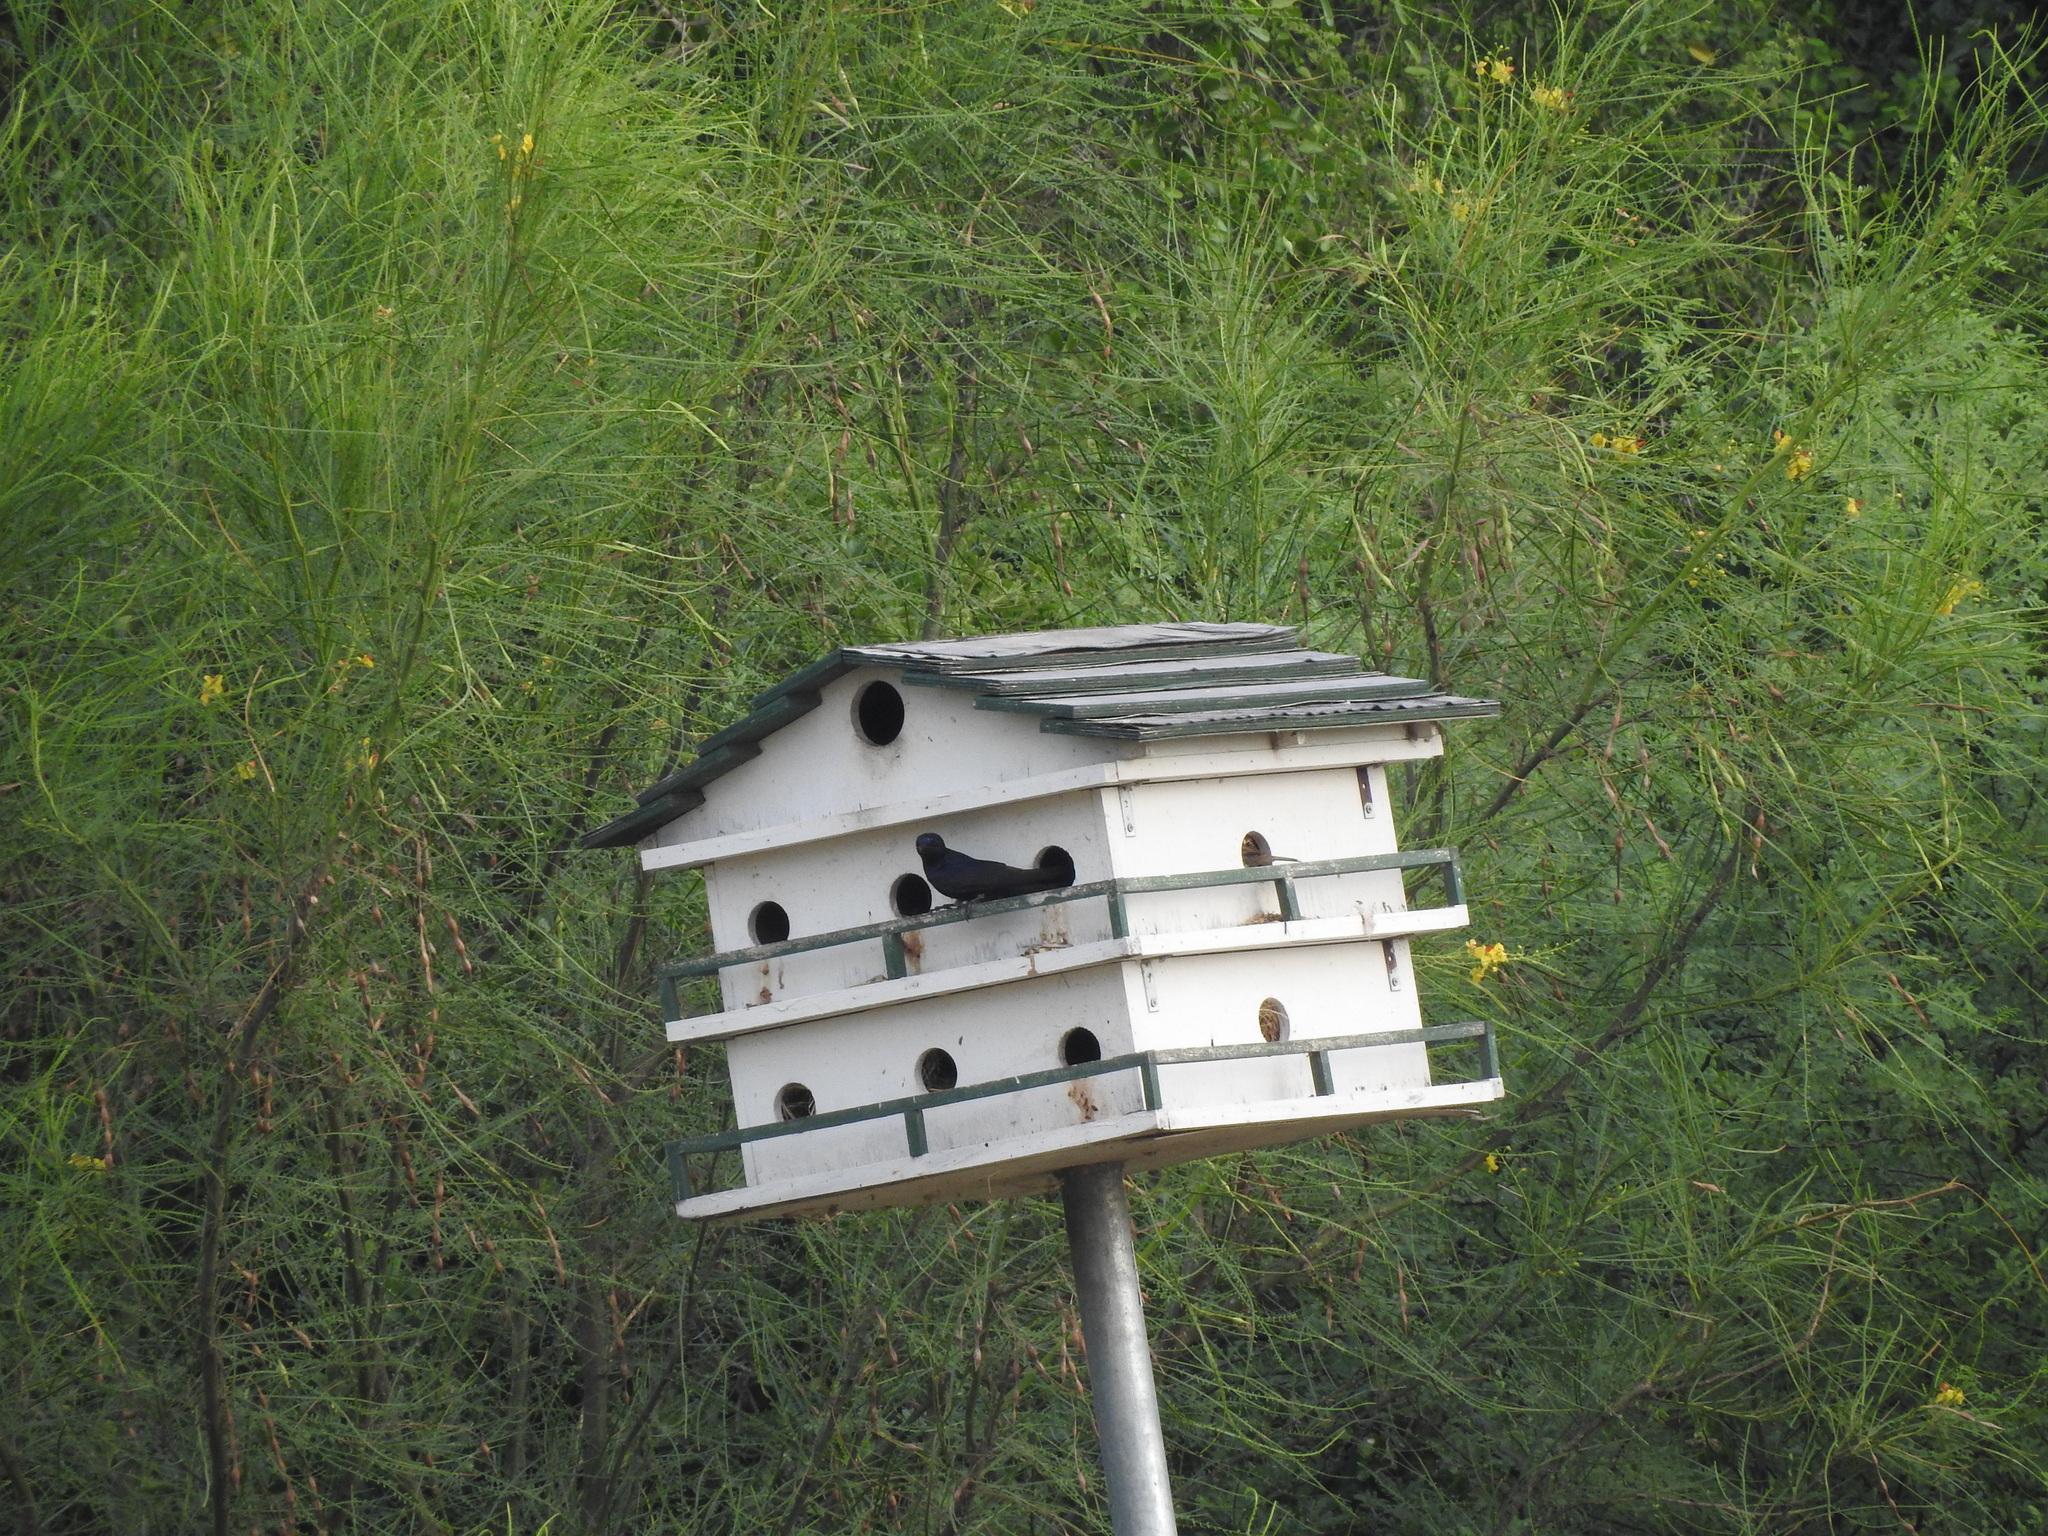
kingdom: Animalia
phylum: Chordata
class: Aves
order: Passeriformes
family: Hirundinidae
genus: Progne
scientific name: Progne subis
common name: Purple martin
